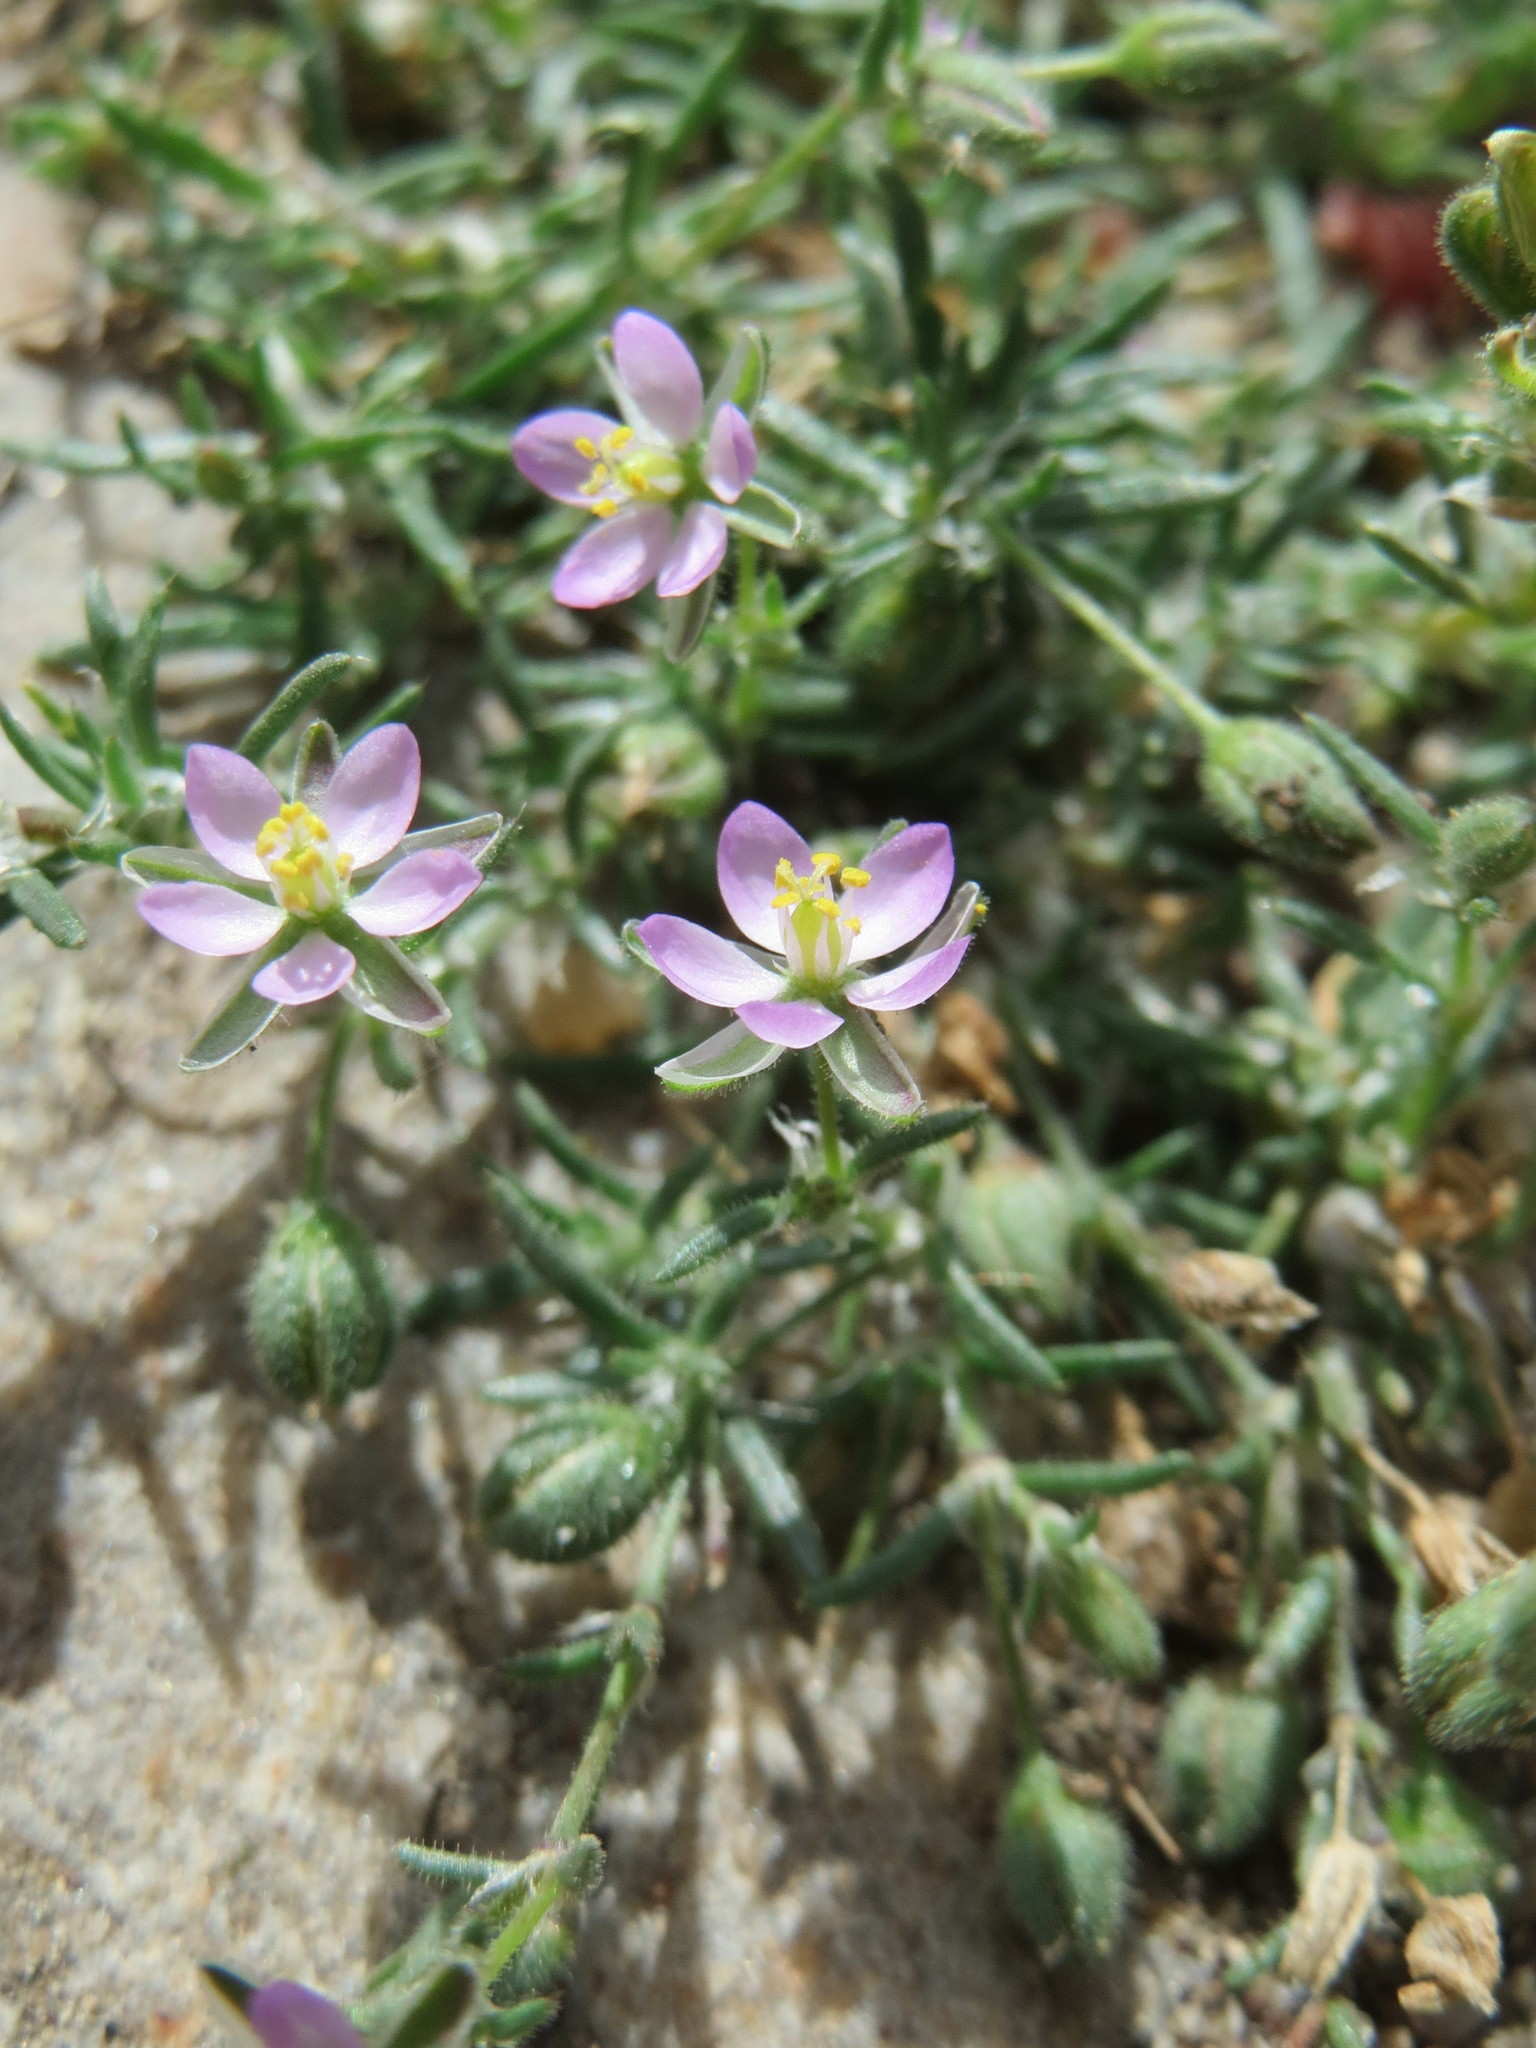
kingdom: Plantae
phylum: Tracheophyta
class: Magnoliopsida
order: Caryophyllales
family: Caryophyllaceae
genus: Spergularia
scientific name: Spergularia rubra
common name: Red sand-spurrey
